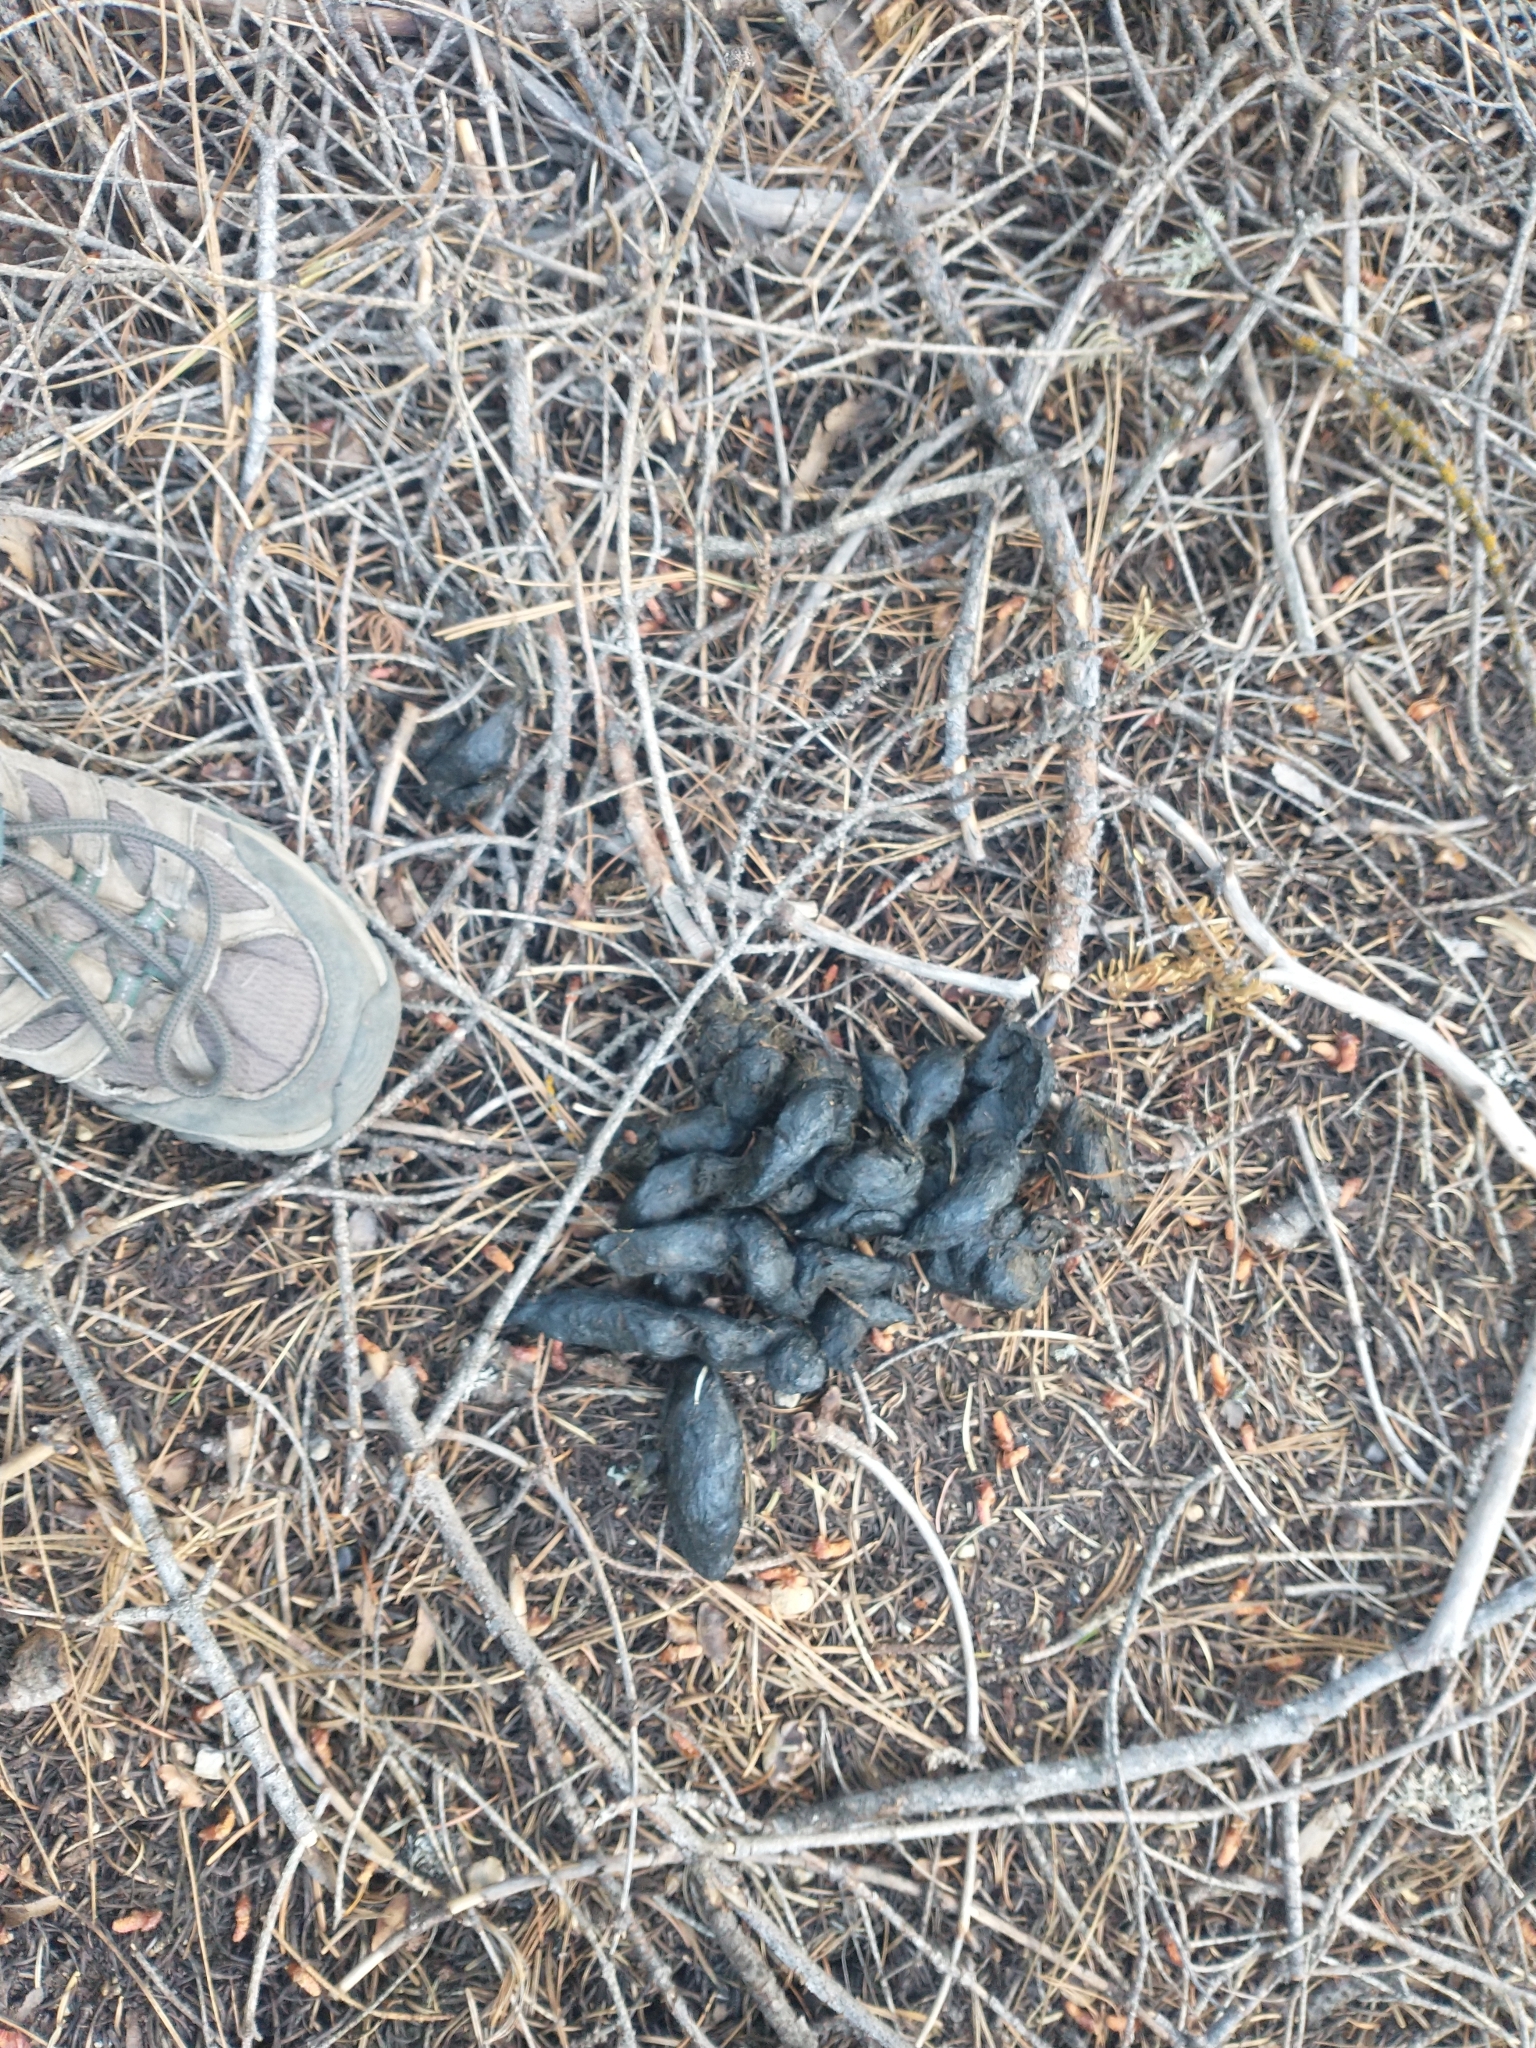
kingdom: Animalia
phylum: Chordata
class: Mammalia
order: Carnivora
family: Ursidae
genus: Ursus
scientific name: Ursus americanus
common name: American black bear
